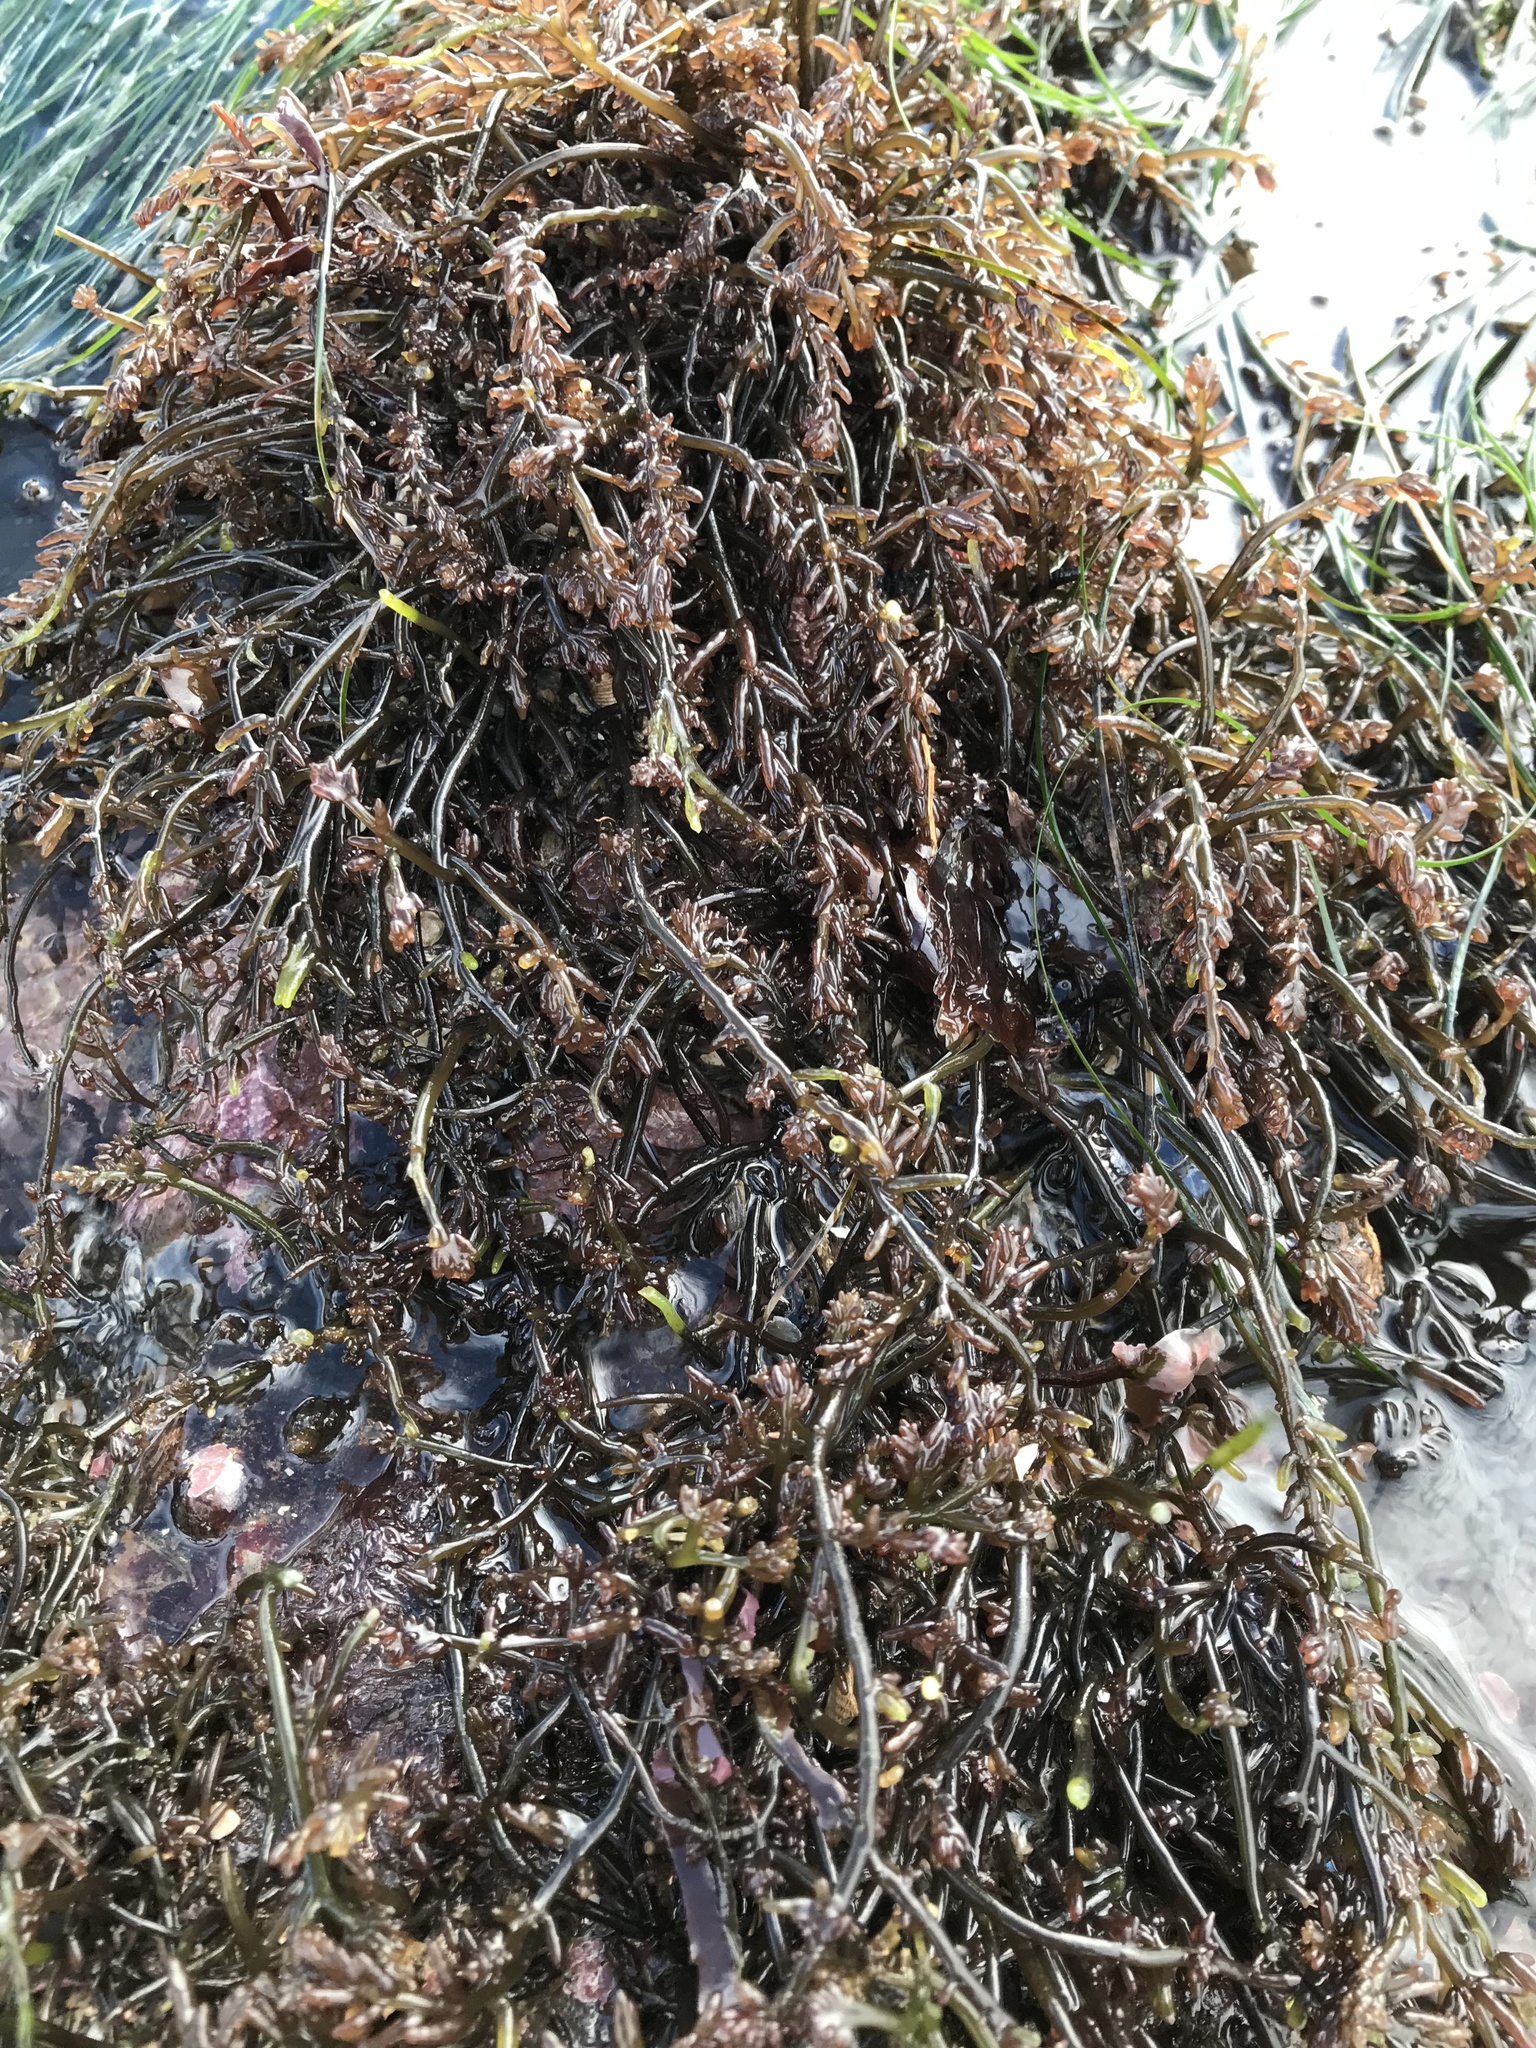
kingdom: Plantae
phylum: Rhodophyta
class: Florideophyceae
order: Rhodymeniales
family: Champiaceae
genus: Neogastroclonium
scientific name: Neogastroclonium subarticulatum
